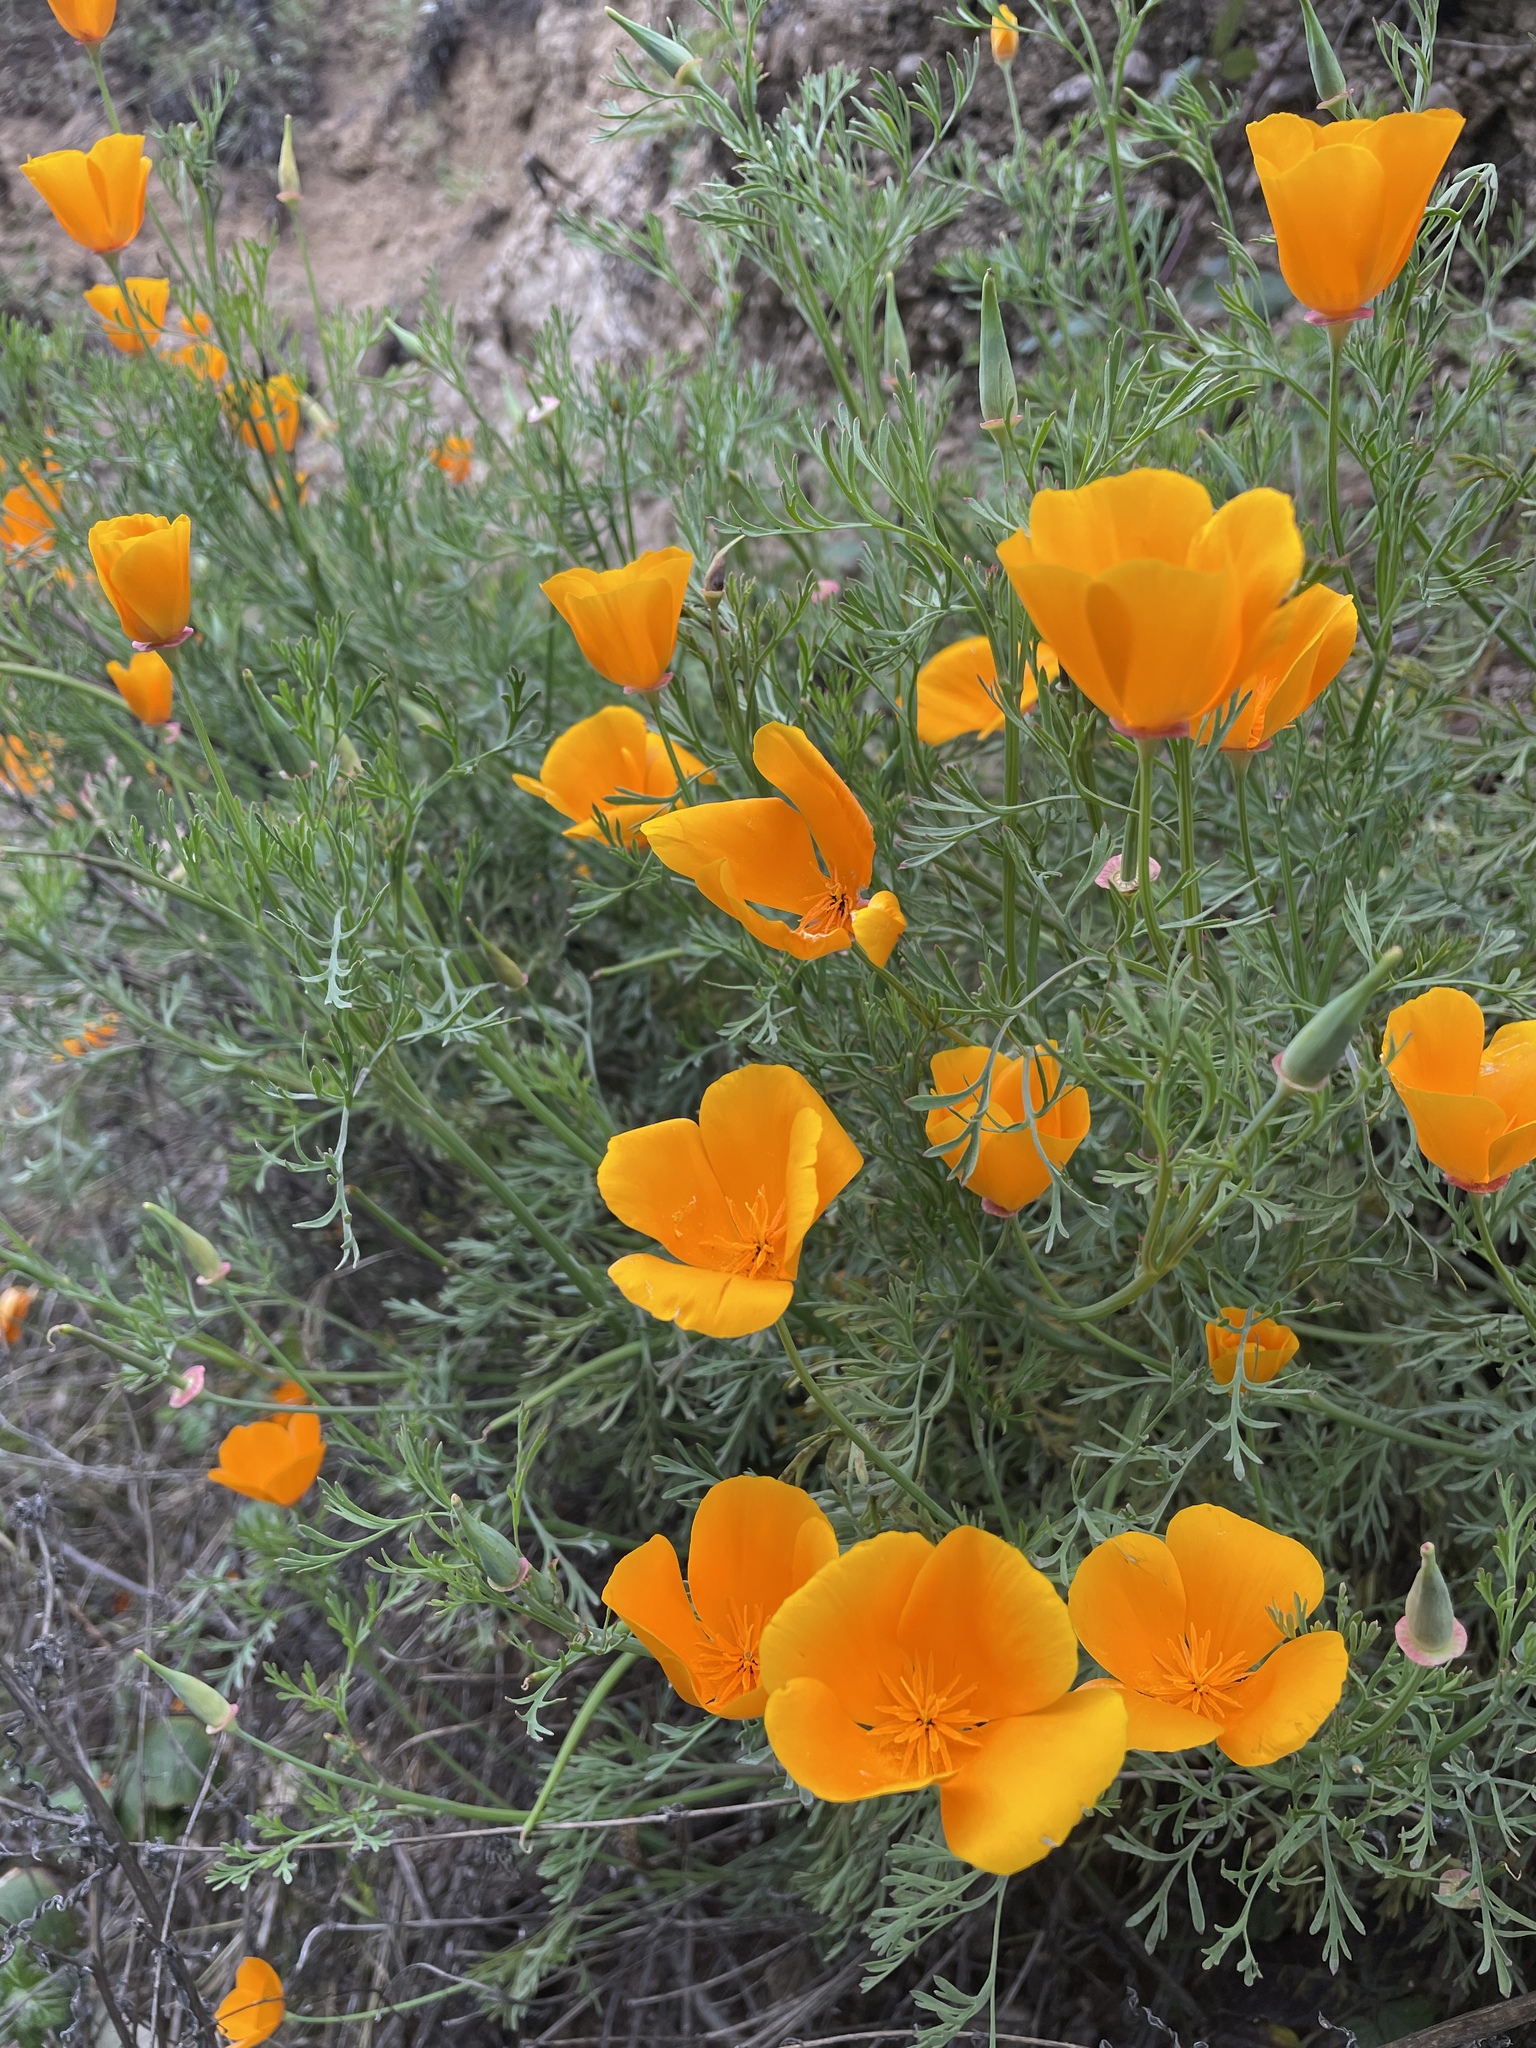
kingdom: Plantae
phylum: Tracheophyta
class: Magnoliopsida
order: Ranunculales
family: Papaveraceae
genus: Eschscholzia
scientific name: Eschscholzia californica
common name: California poppy
